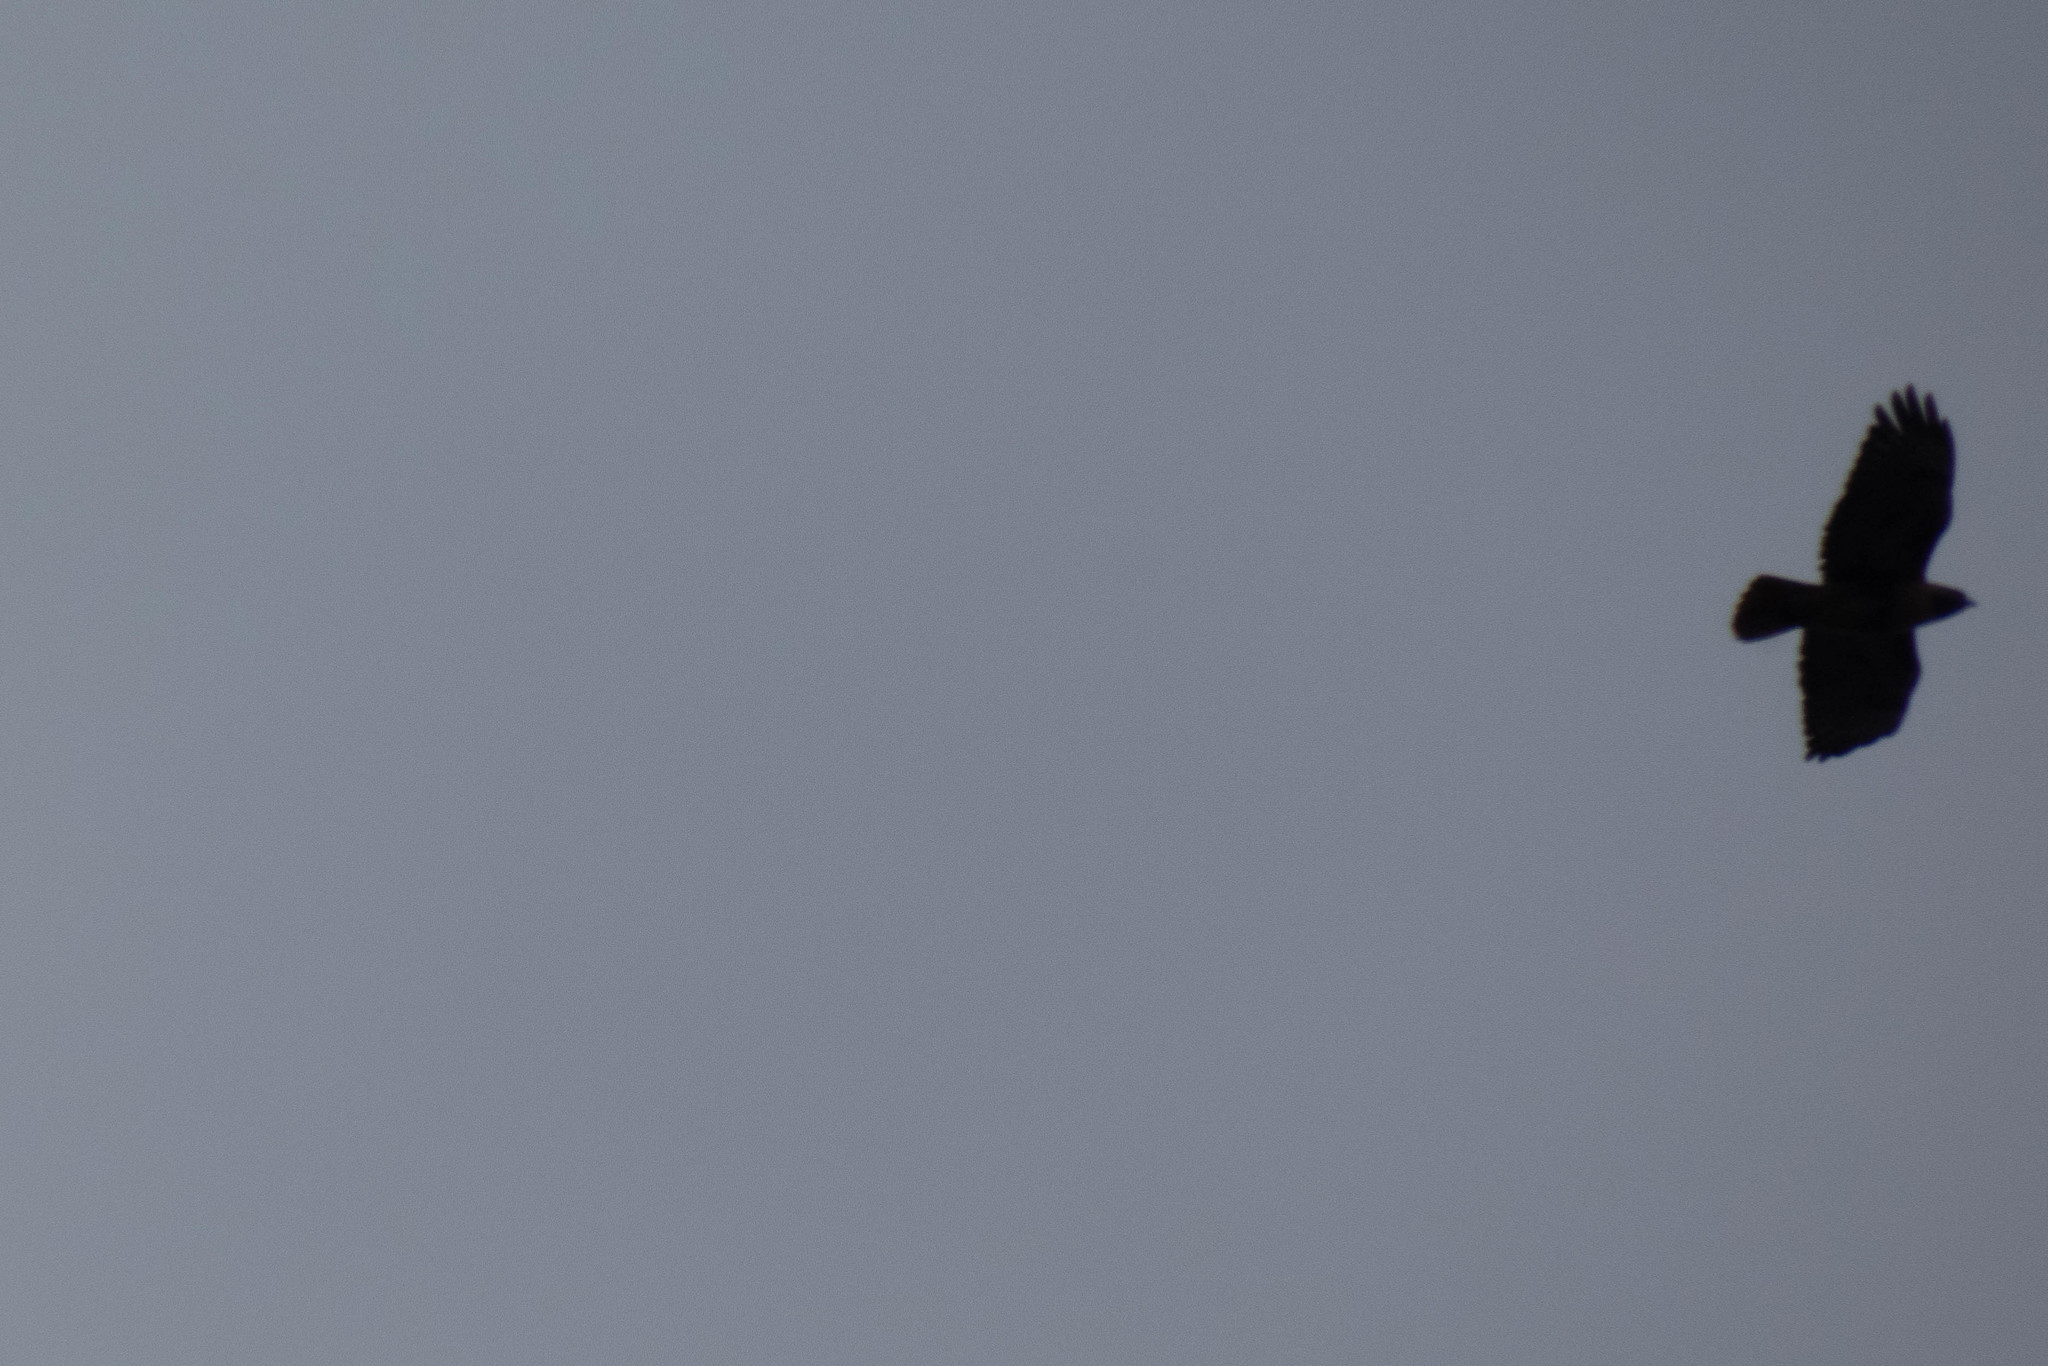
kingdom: Animalia
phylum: Chordata
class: Aves
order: Accipitriformes
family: Accipitridae
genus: Buteo
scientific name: Buteo jamaicensis
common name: Red-tailed hawk
